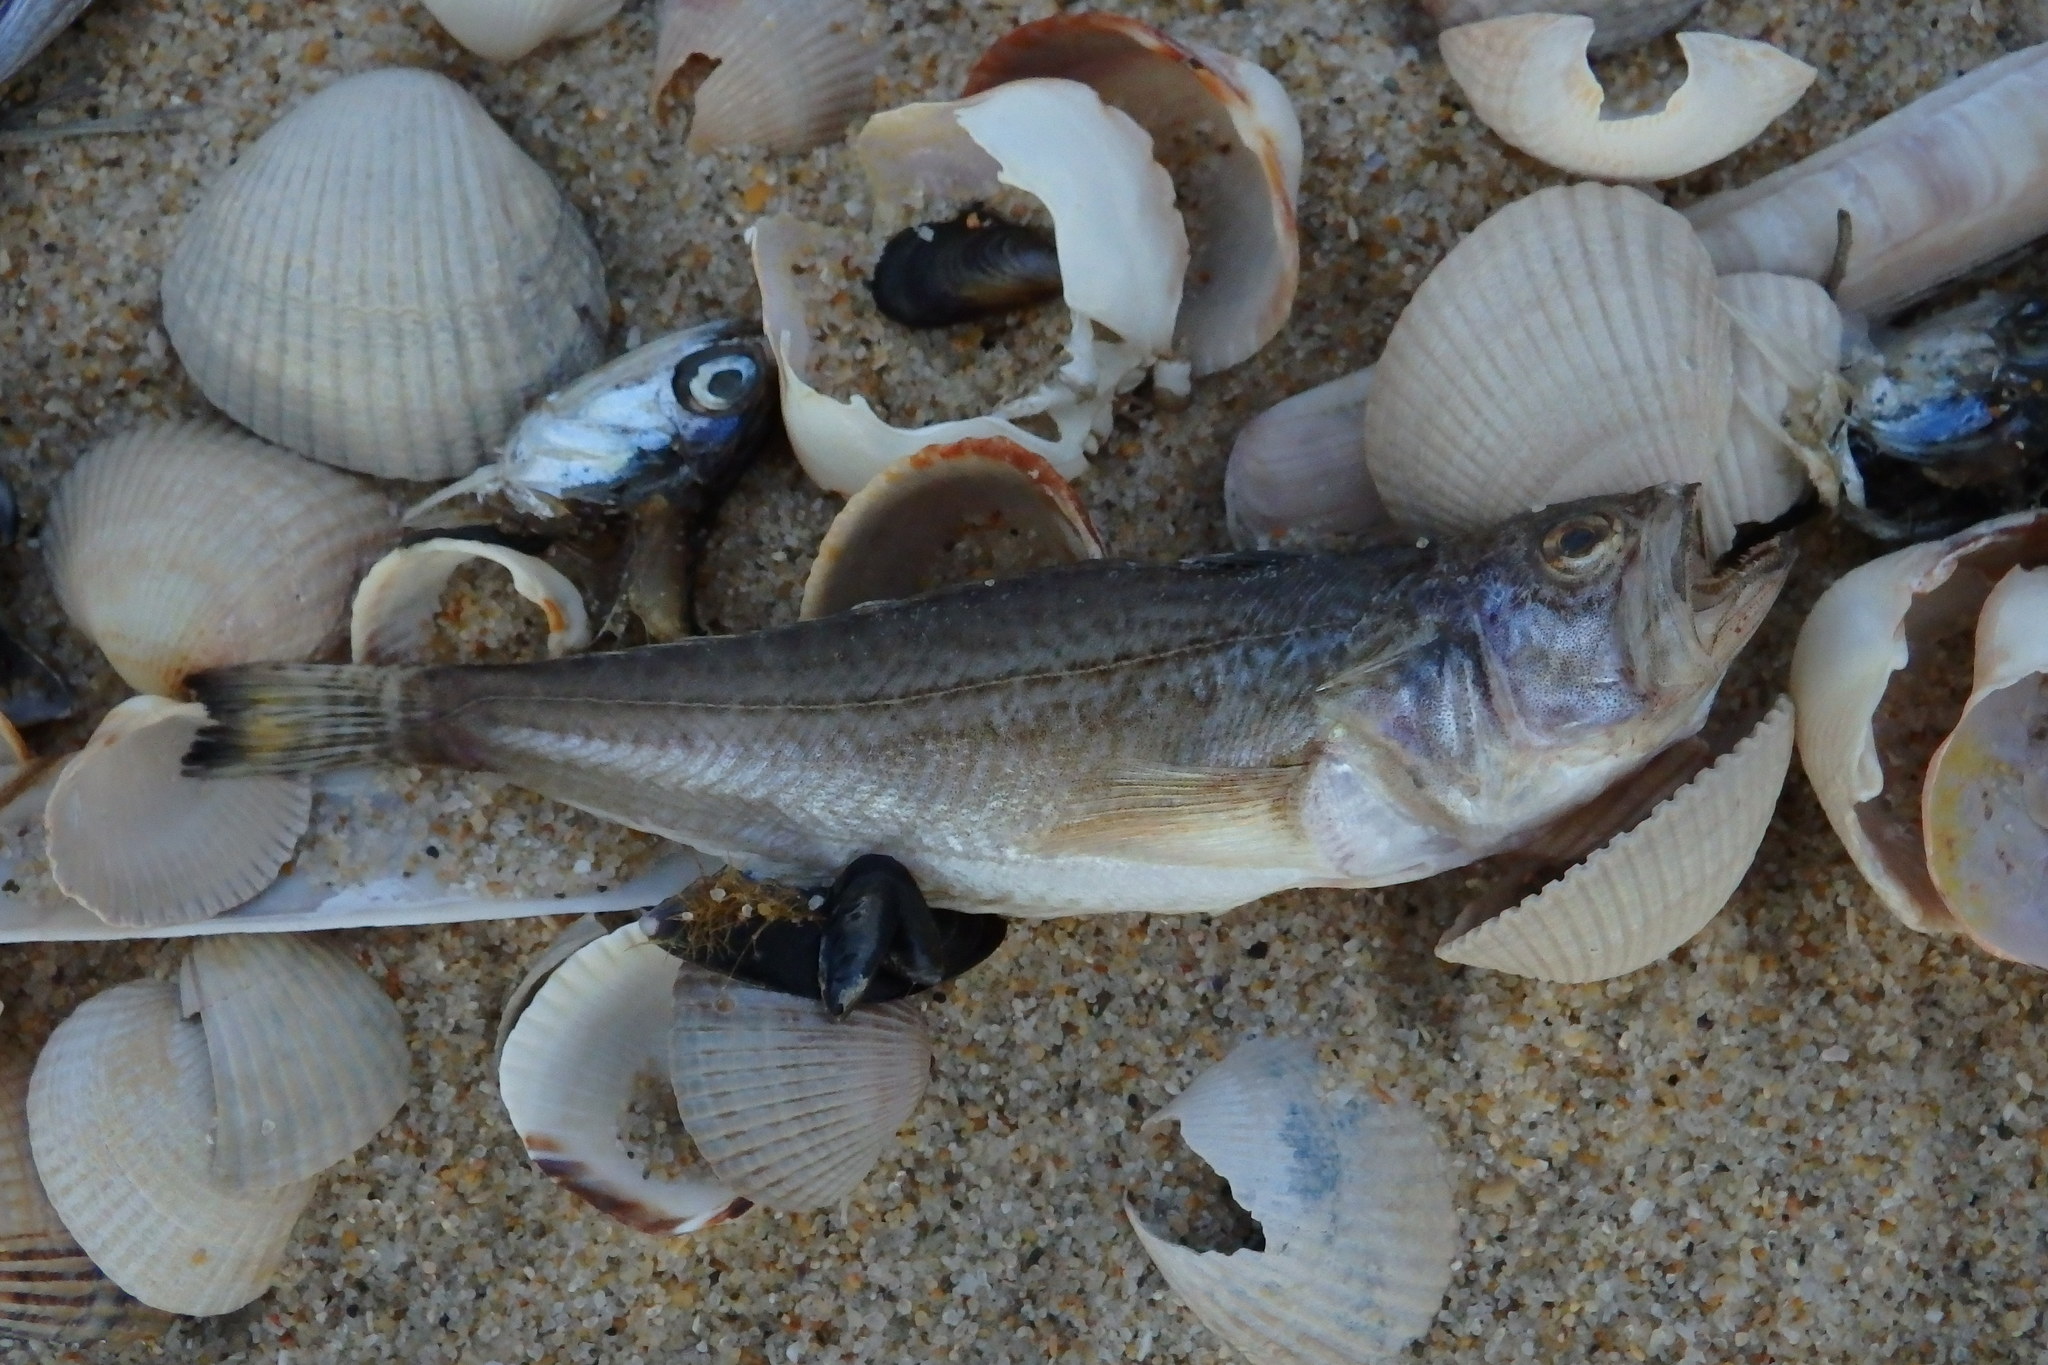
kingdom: Animalia
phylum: Chordata
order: Perciformes
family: Trachinidae
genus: Echiichthys
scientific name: Echiichthys vipera
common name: Lesser weever
